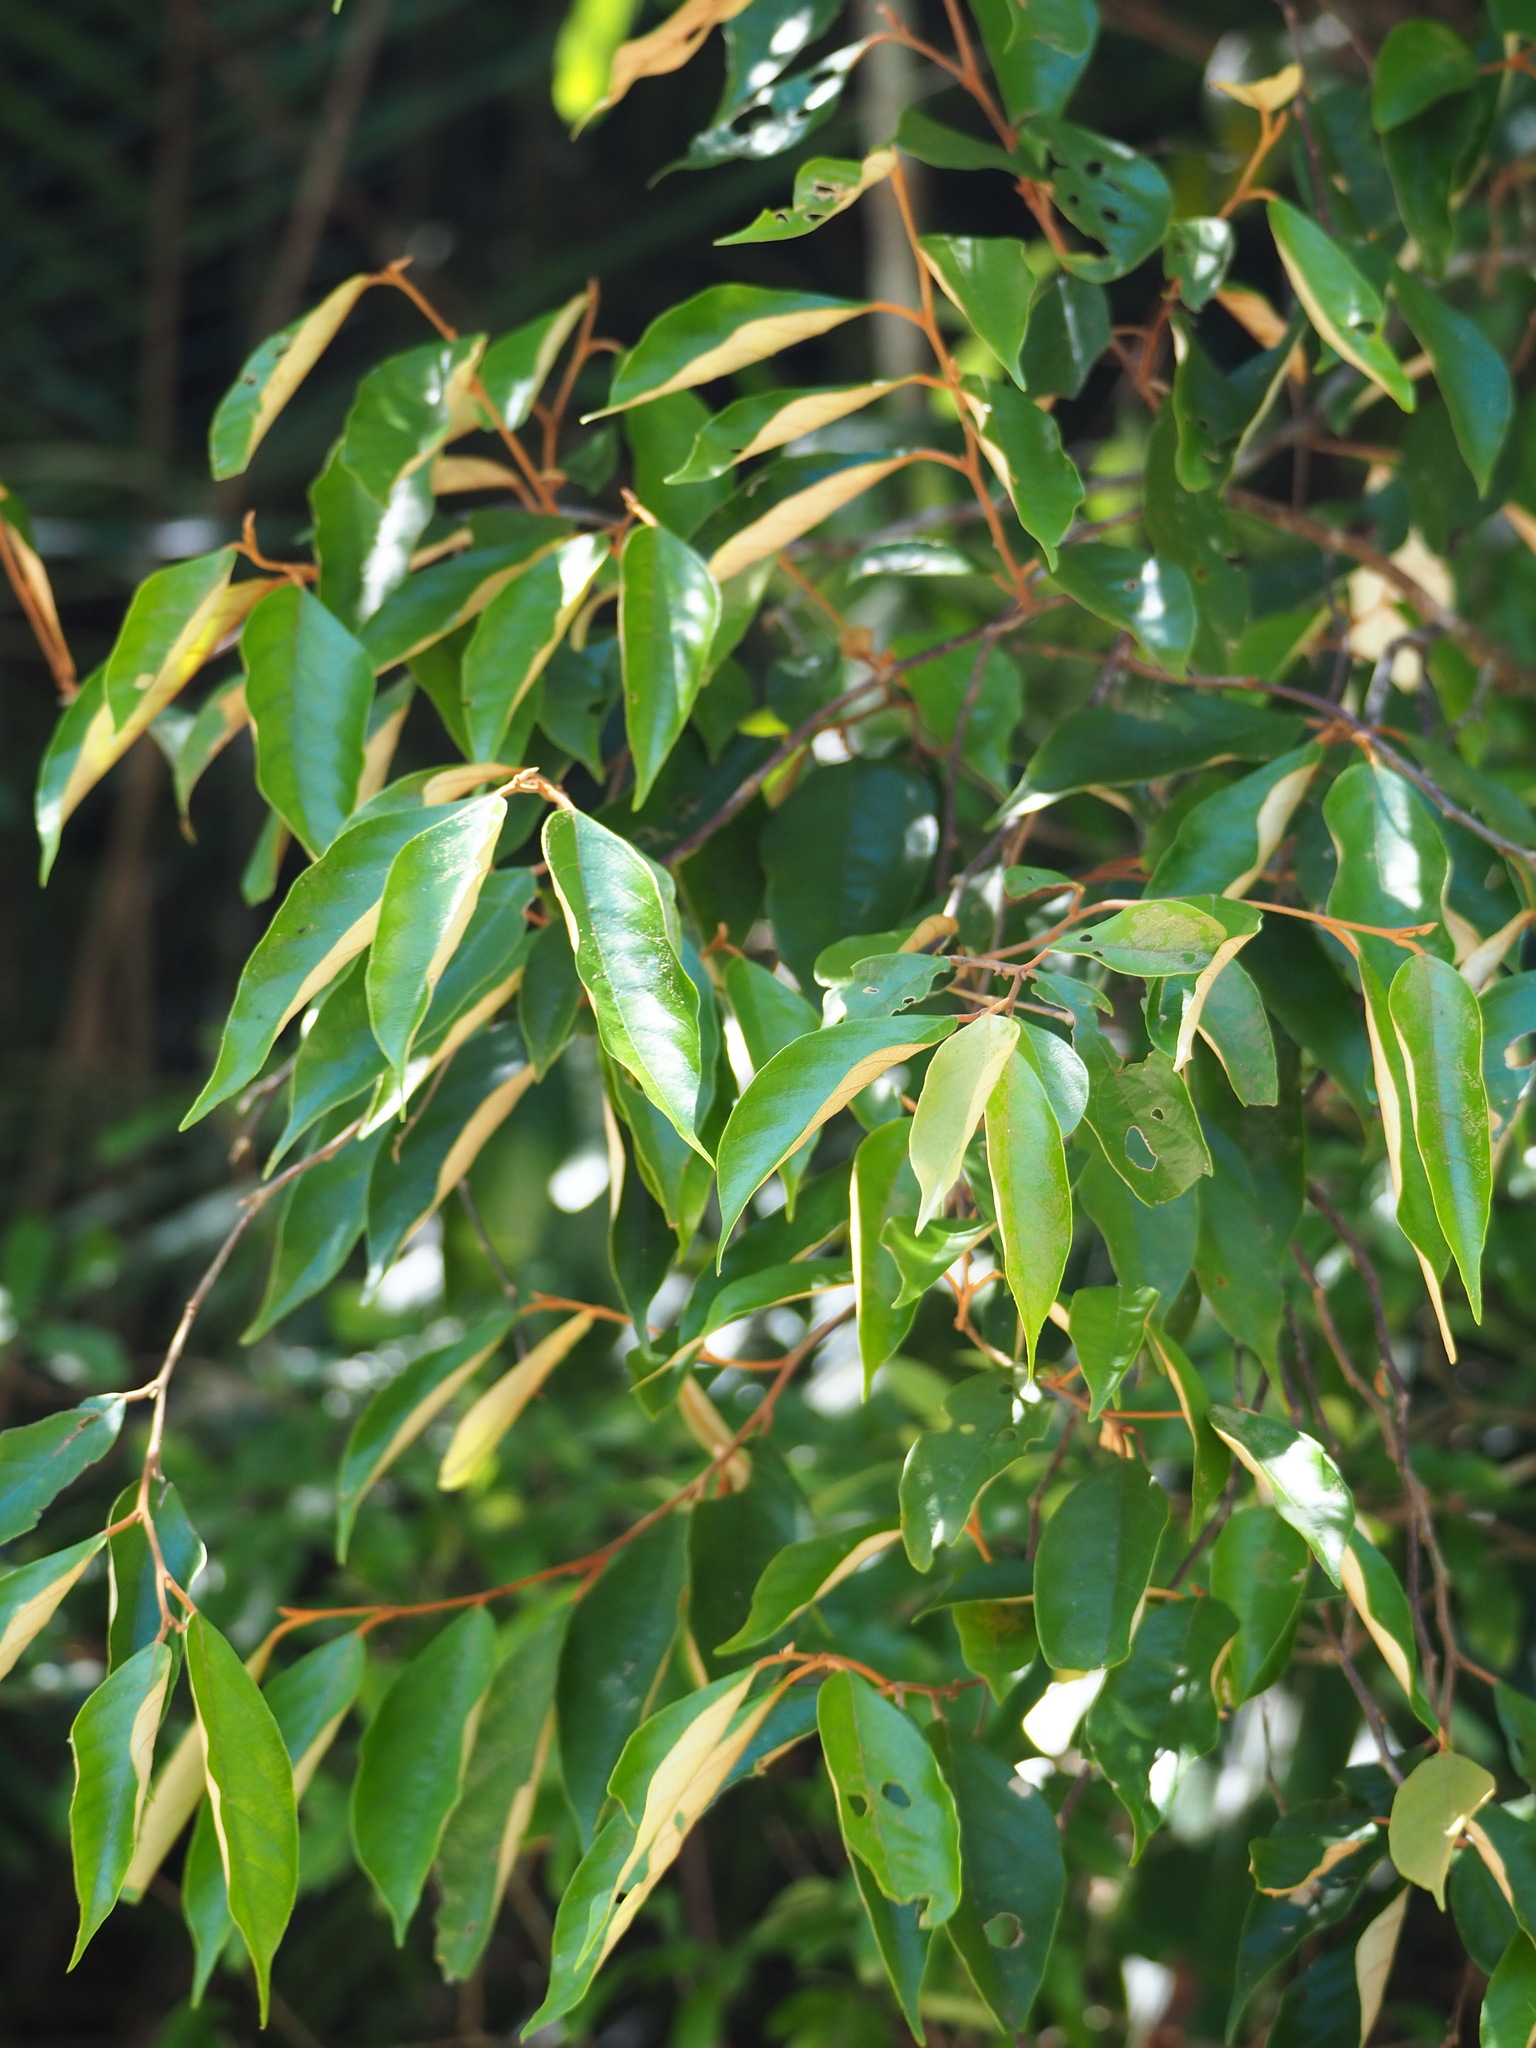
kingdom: Plantae
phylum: Tracheophyta
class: Magnoliopsida
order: Ericales
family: Styracaceae
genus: Styrax
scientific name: Styrax suberifolius
